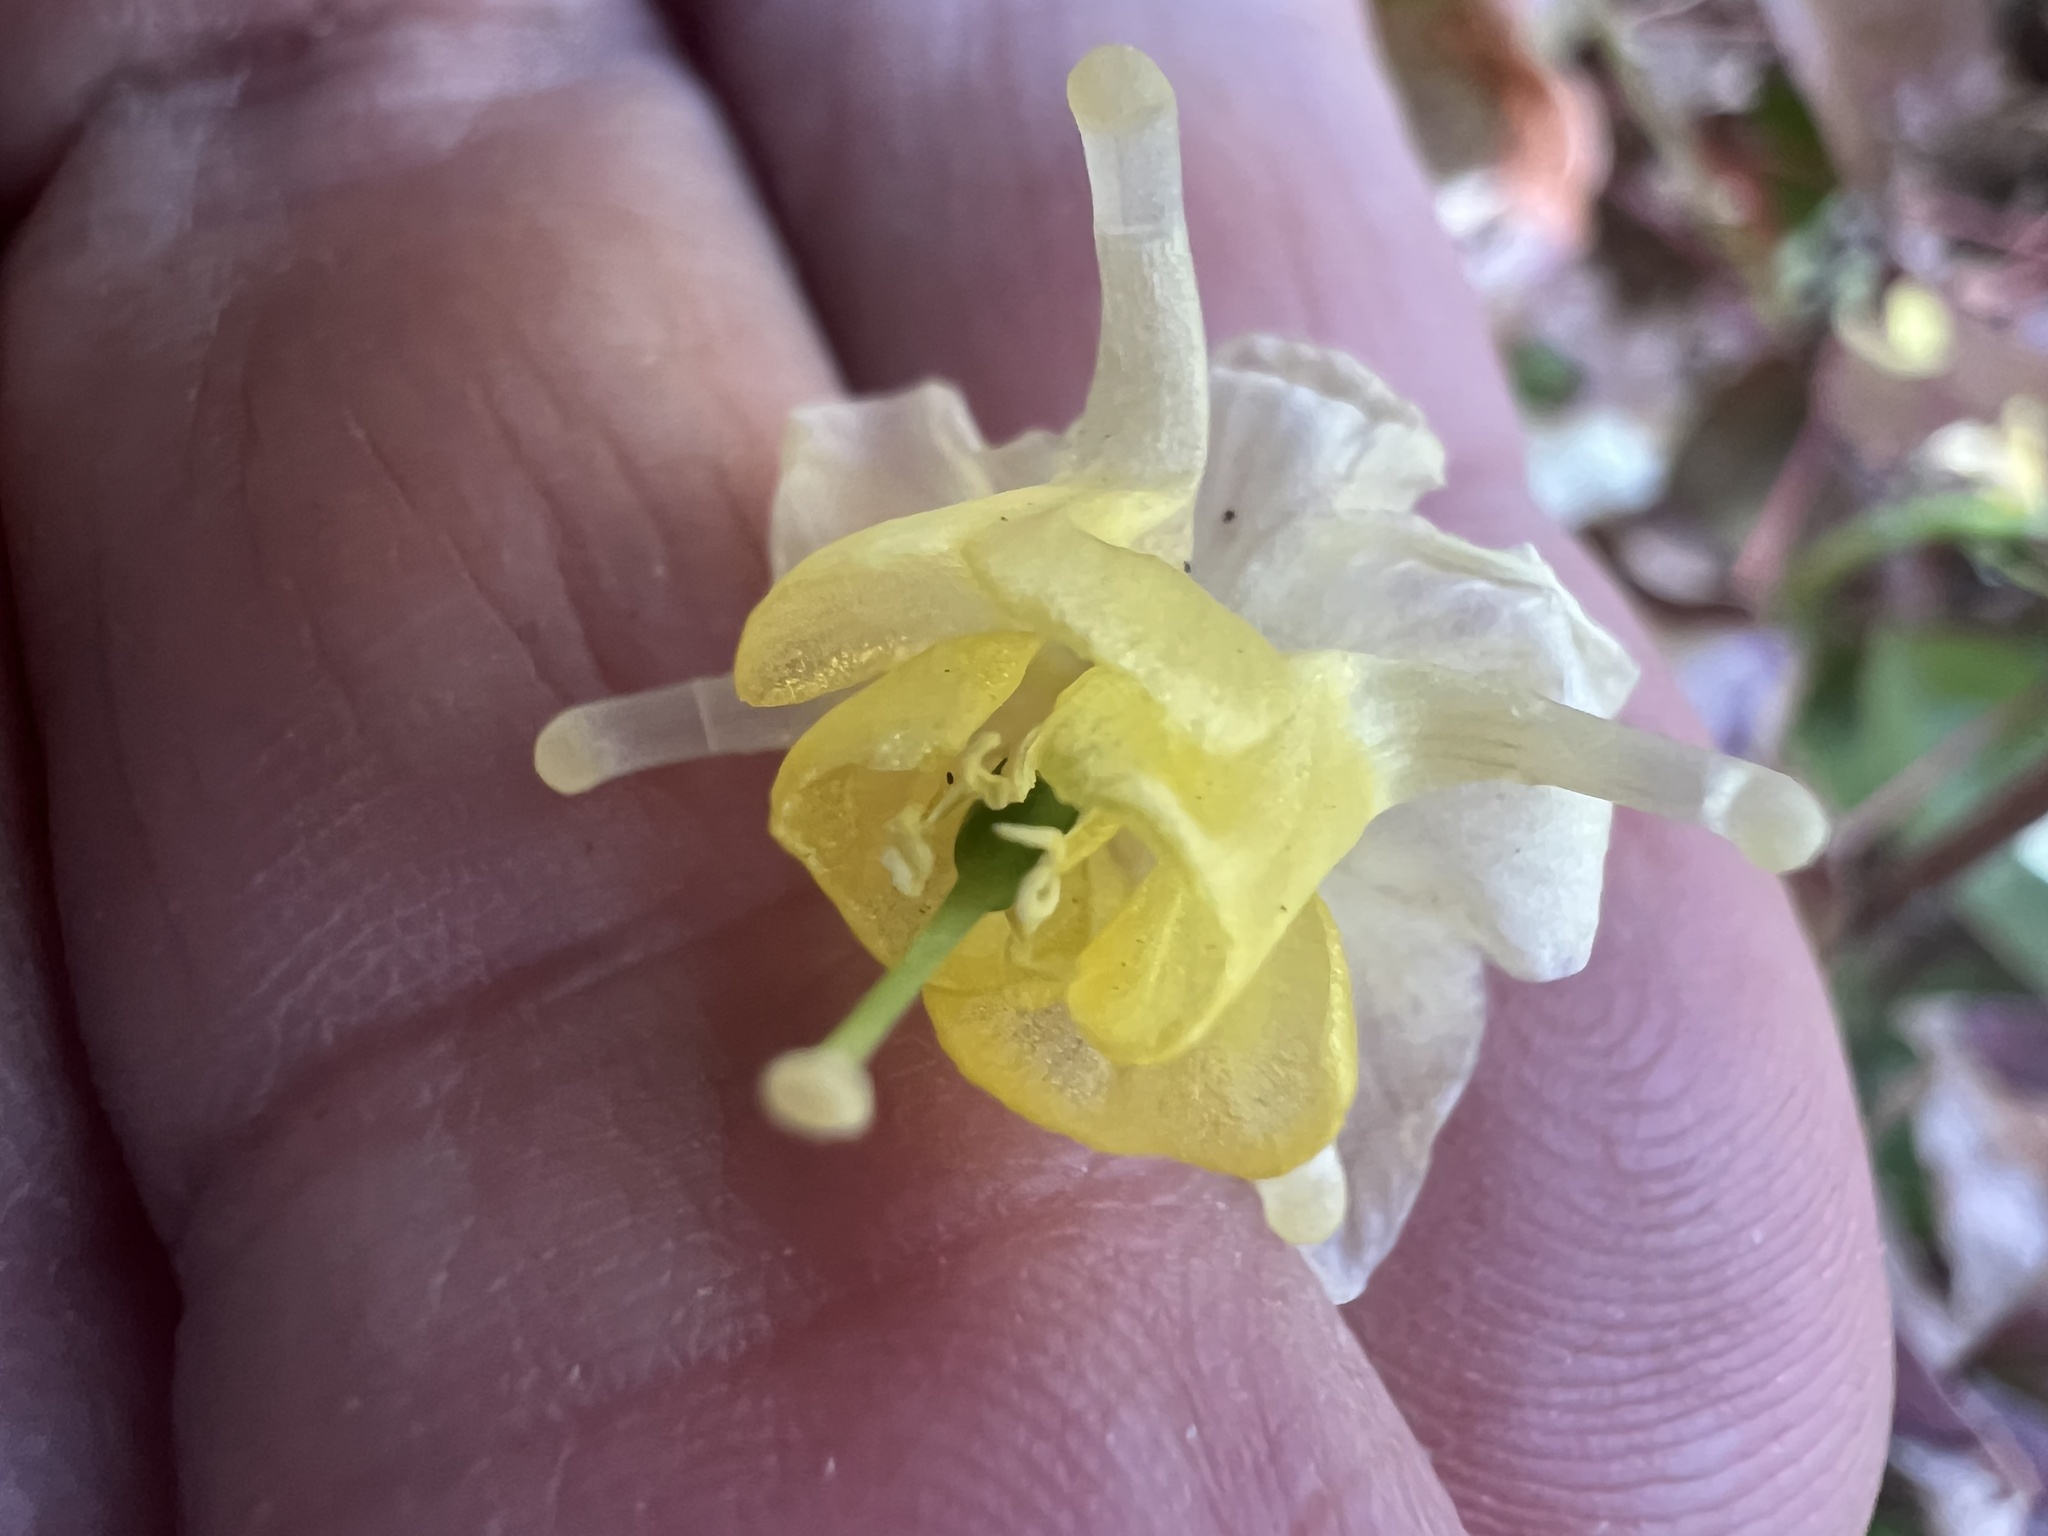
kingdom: Plantae
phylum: Tracheophyta
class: Magnoliopsida
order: Ranunculales
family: Berberidaceae
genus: Epimedium
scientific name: Epimedium versicolor
